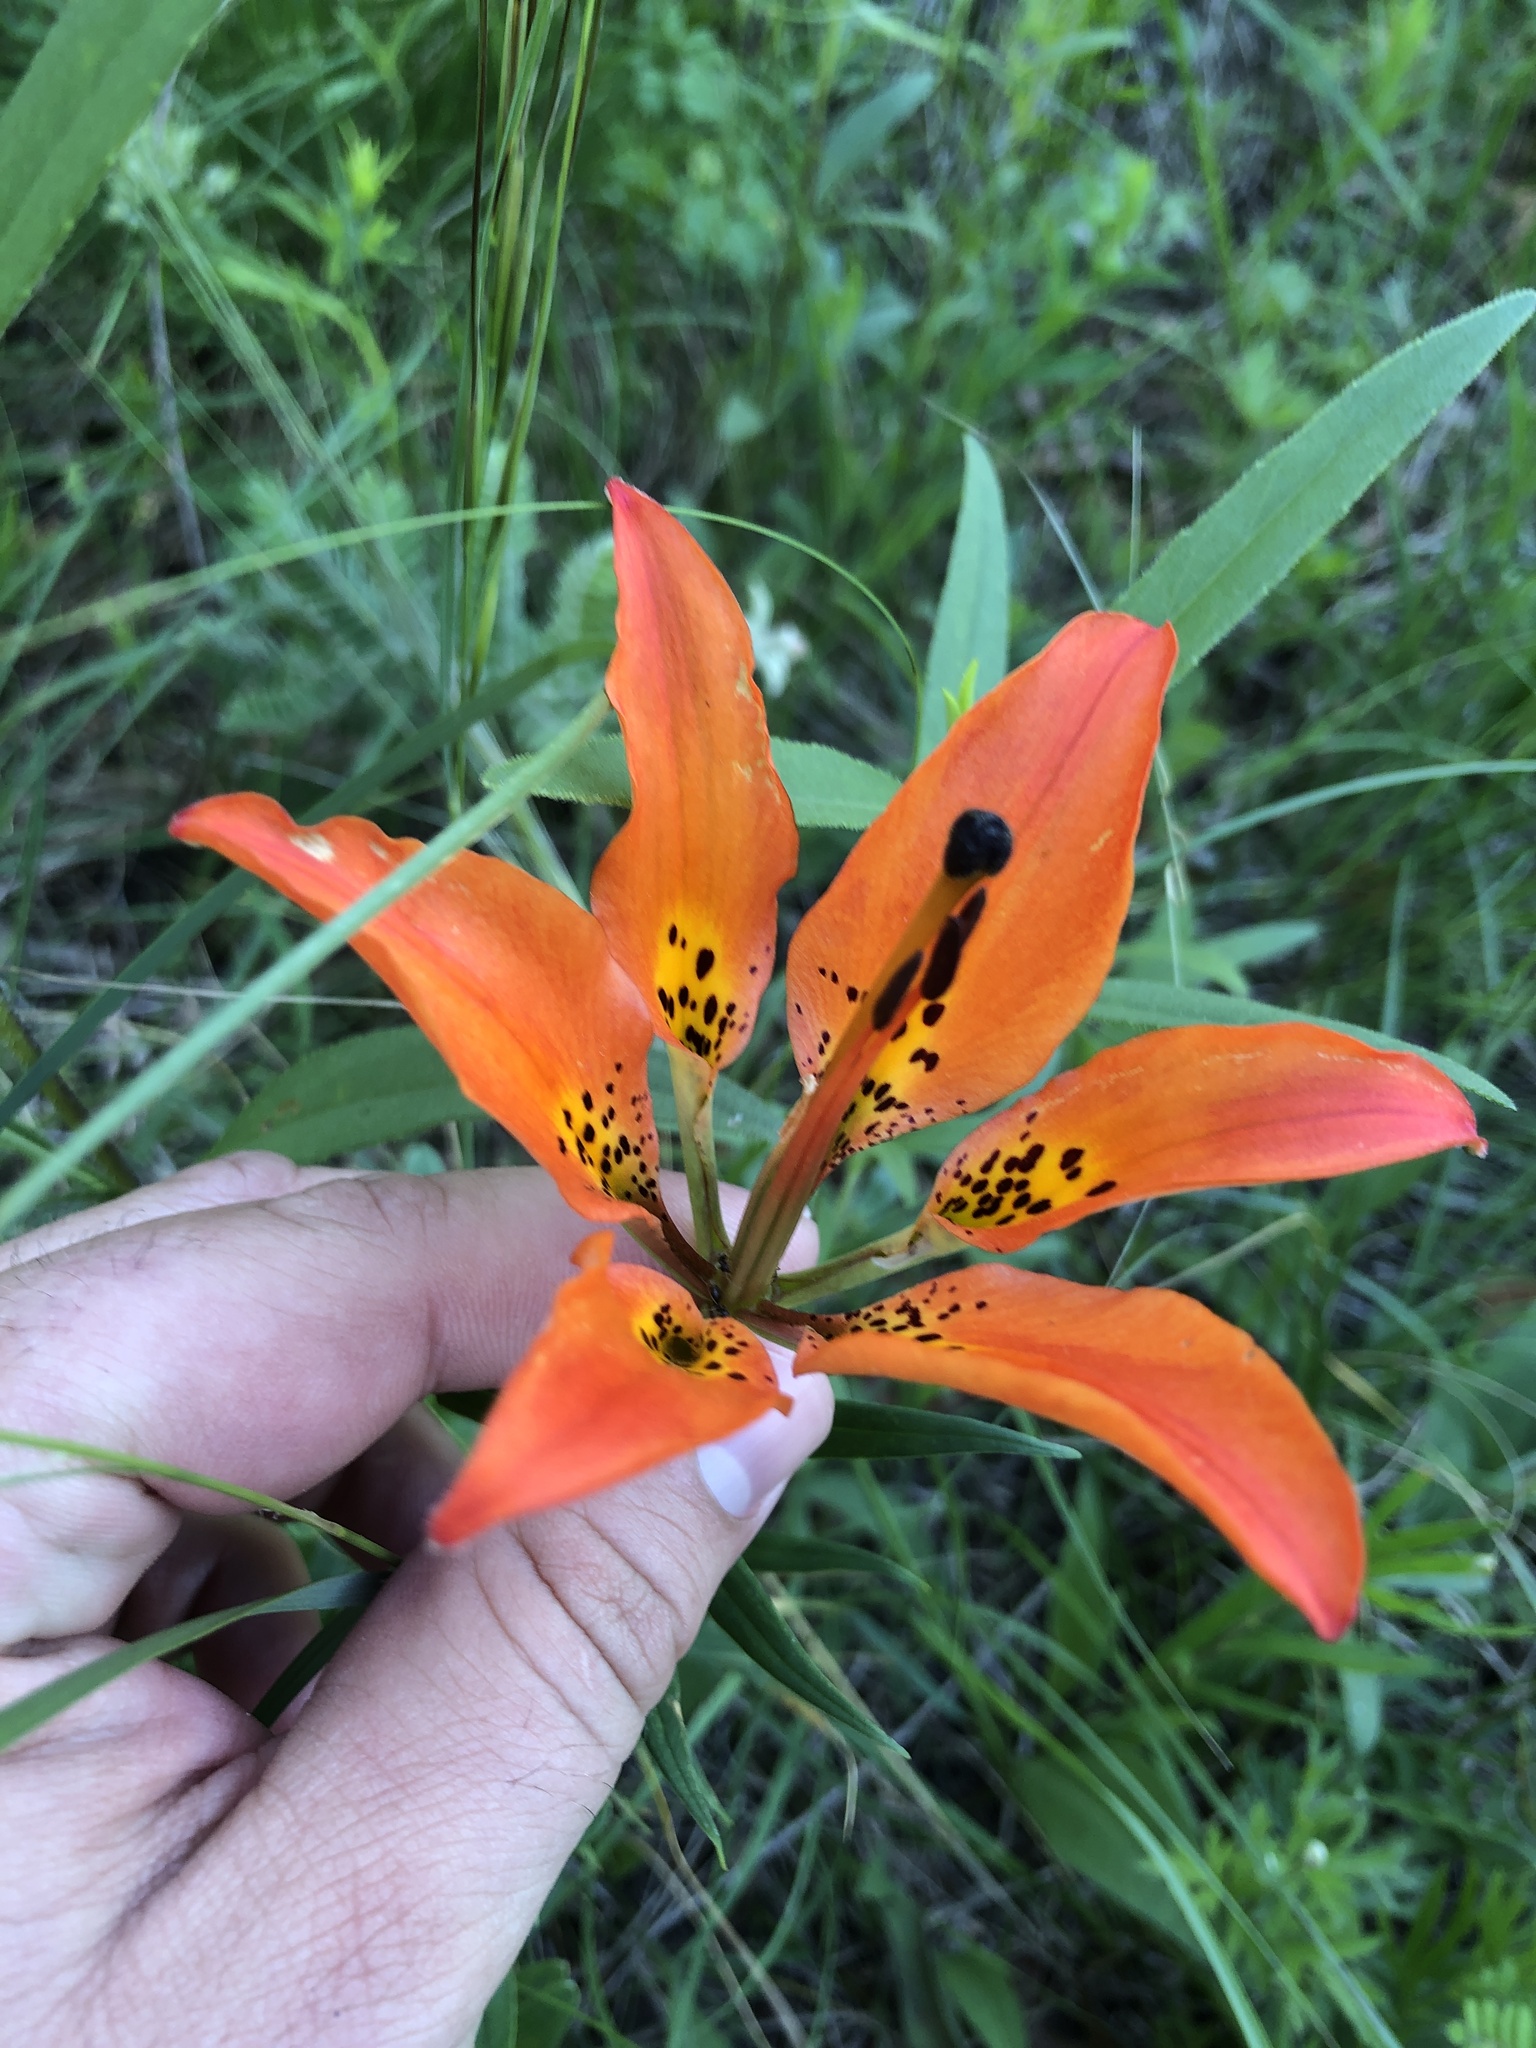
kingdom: Plantae
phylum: Tracheophyta
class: Liliopsida
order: Liliales
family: Liliaceae
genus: Lilium
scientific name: Lilium philadelphicum
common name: Red lily
